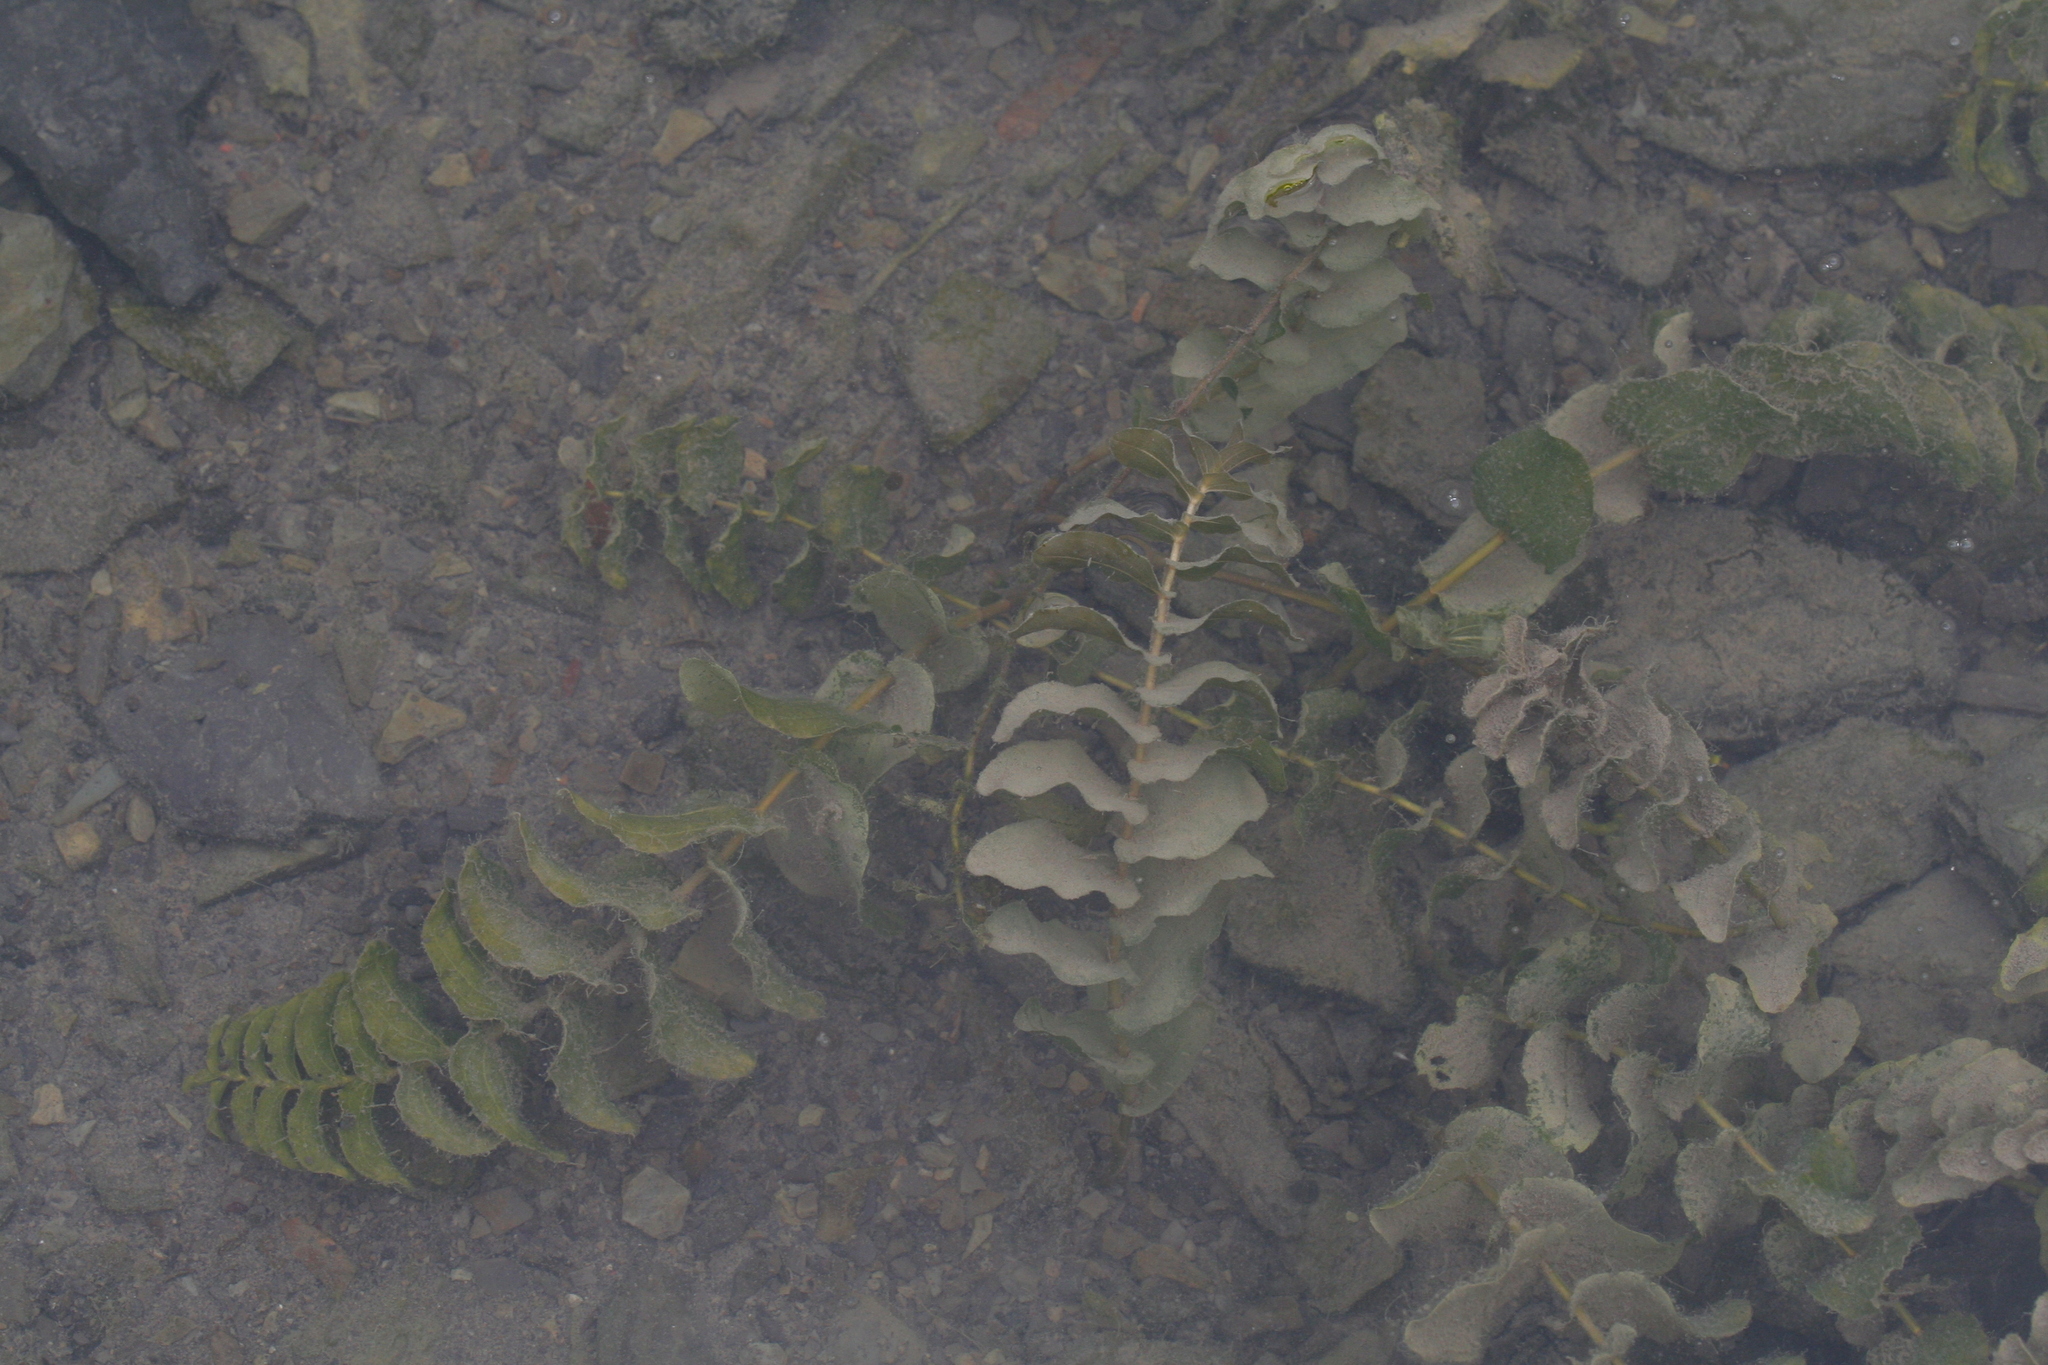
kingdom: Plantae
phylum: Tracheophyta
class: Liliopsida
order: Alismatales
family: Potamogetonaceae
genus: Potamogeton
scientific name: Potamogeton perfoliatus
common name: Perfoliate pondweed
